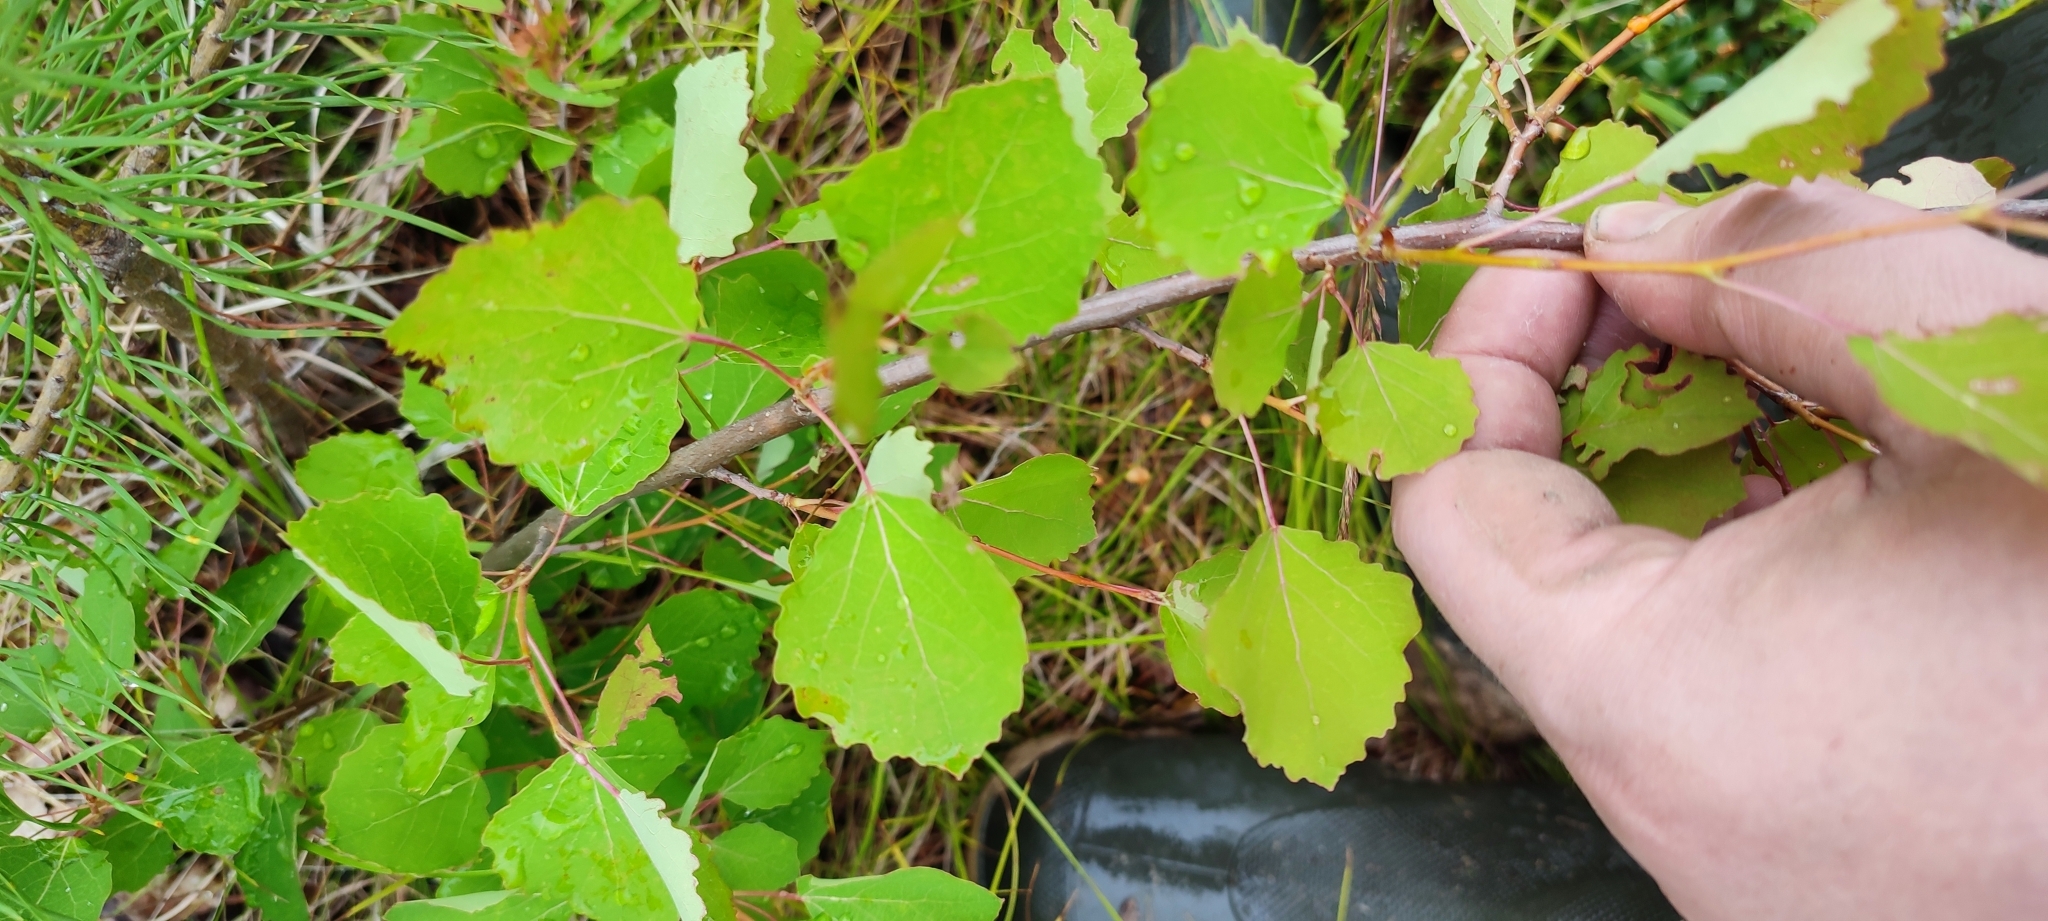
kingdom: Plantae
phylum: Tracheophyta
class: Magnoliopsida
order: Malpighiales
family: Salicaceae
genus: Populus
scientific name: Populus tremula
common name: European aspen
